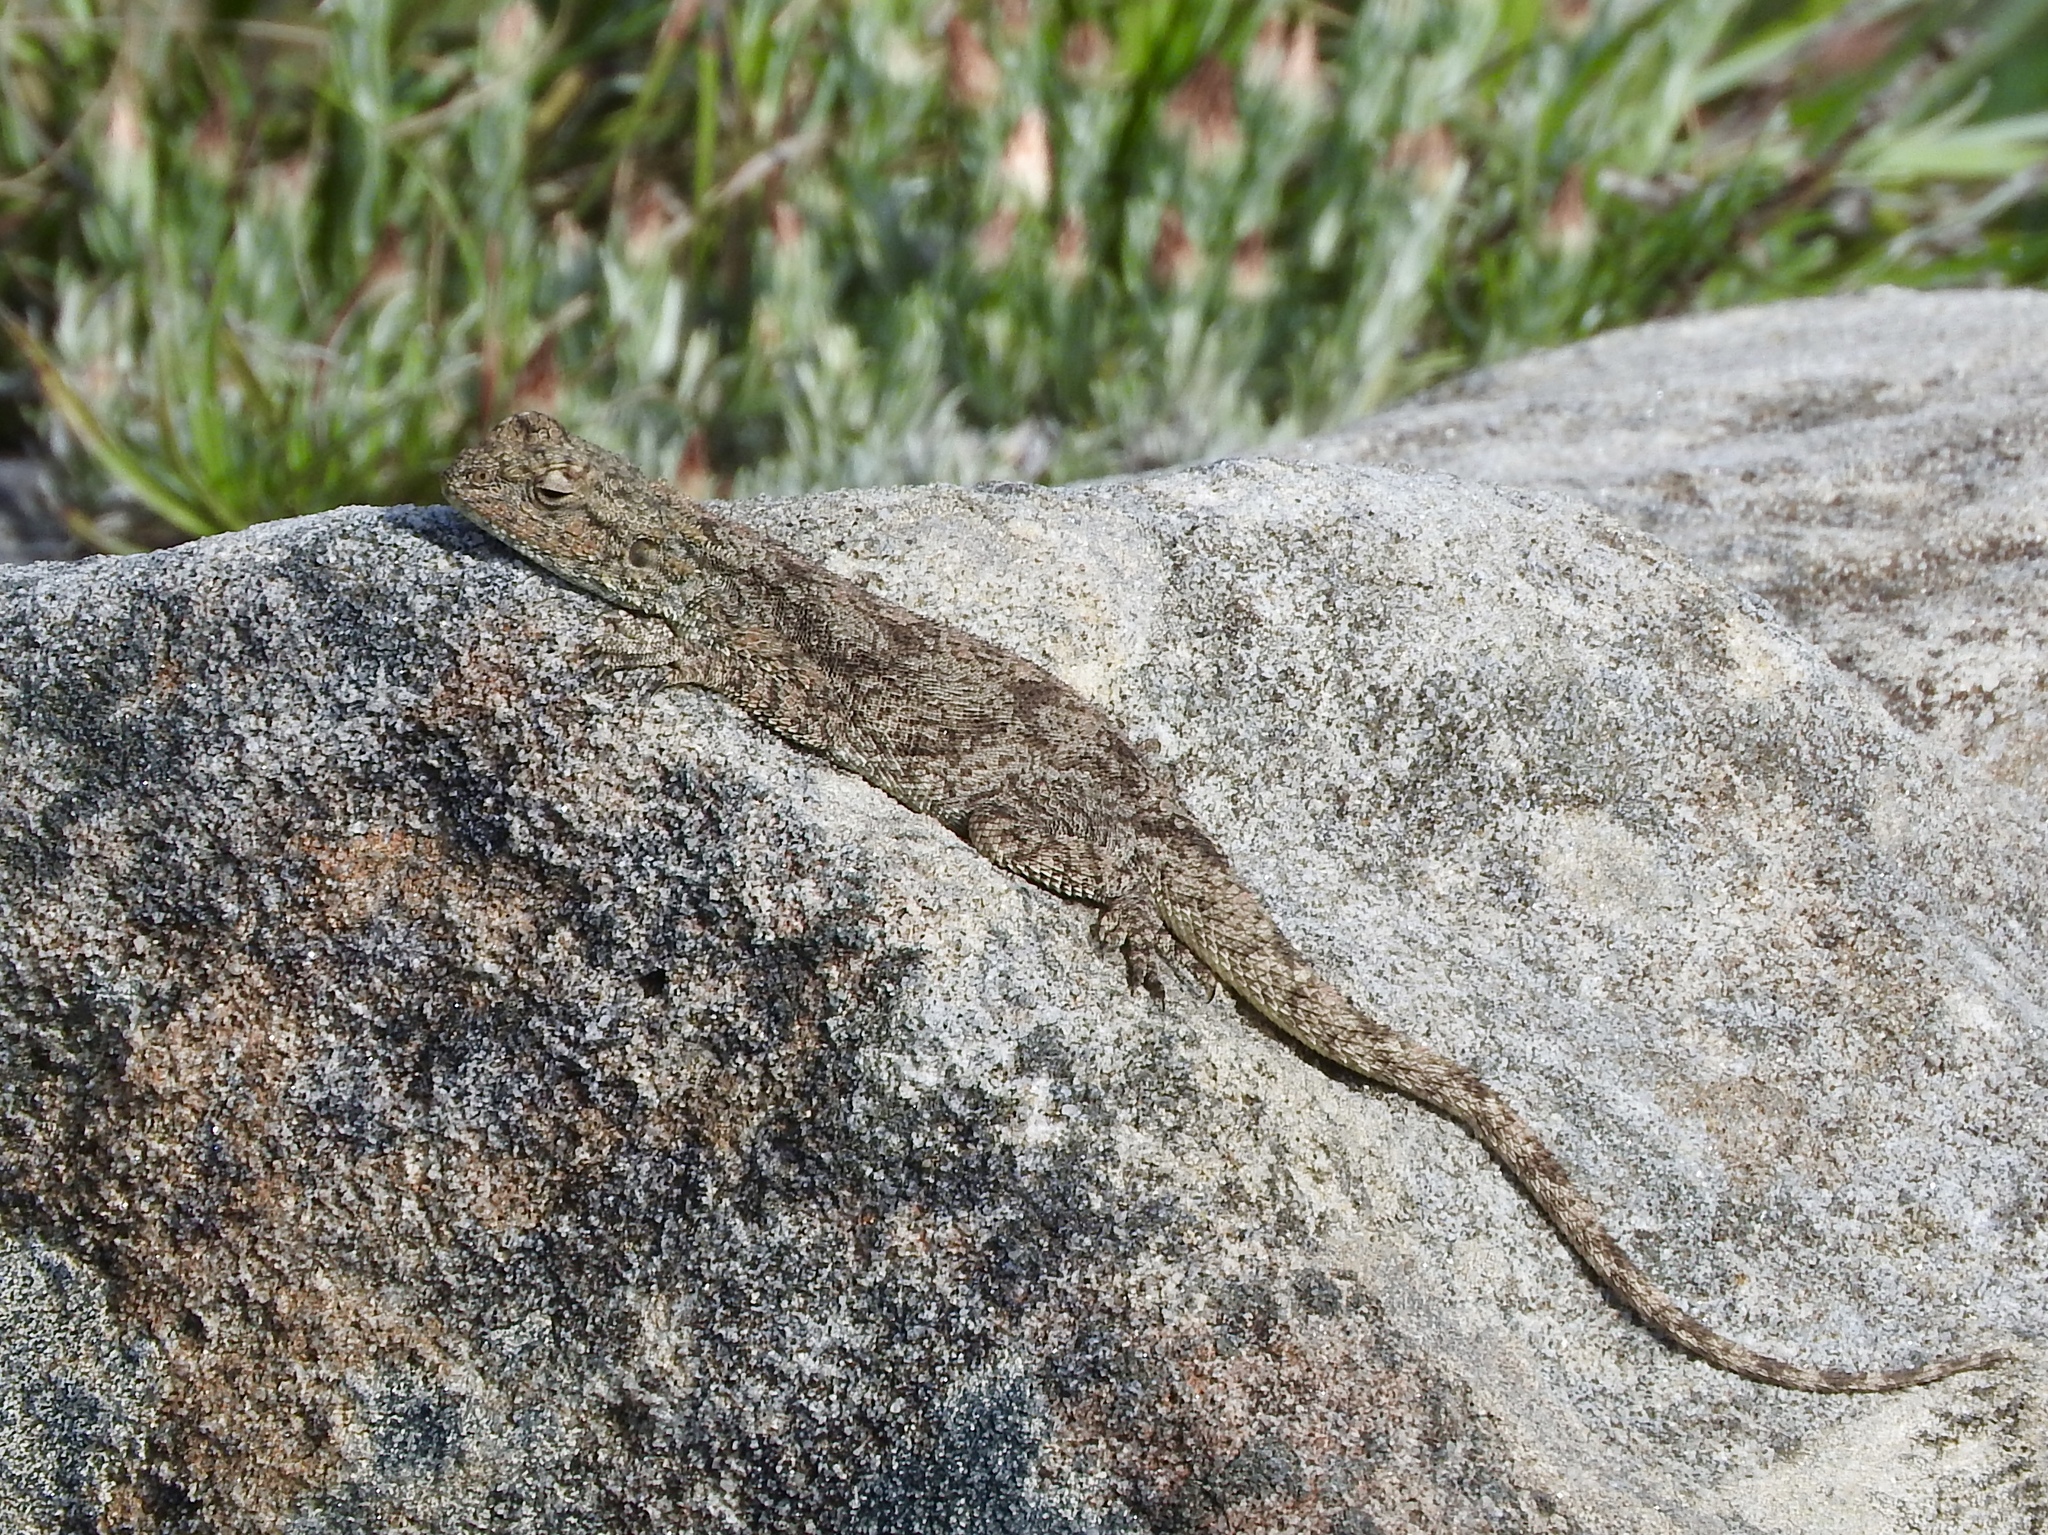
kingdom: Animalia
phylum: Chordata
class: Squamata
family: Agamidae
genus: Agama
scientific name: Agama atra
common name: Southern african rock agama
